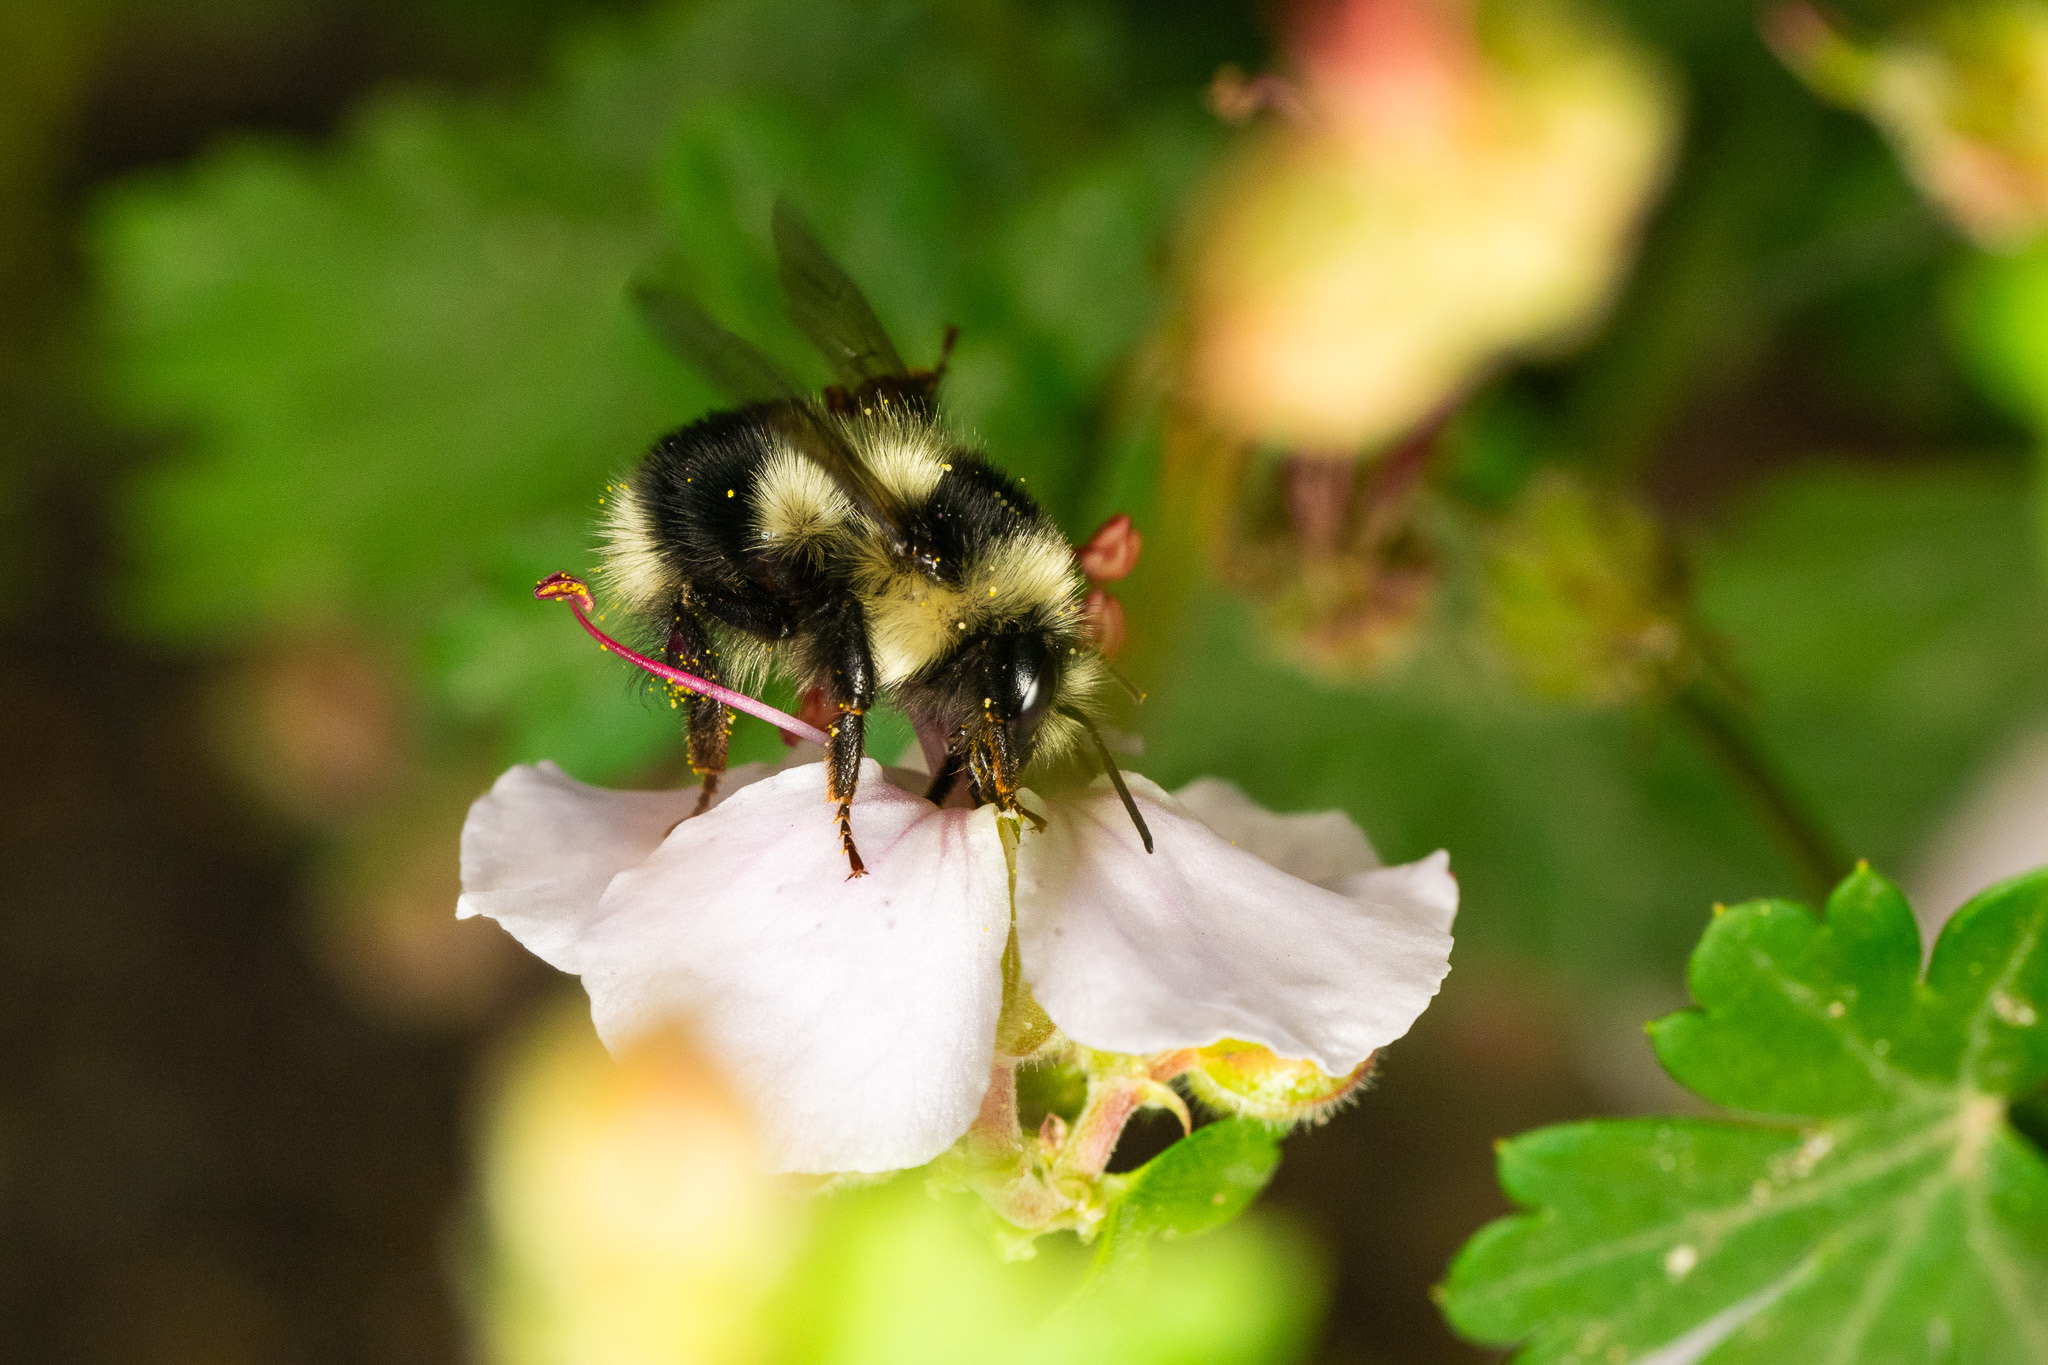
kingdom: Animalia
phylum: Arthropoda
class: Insecta
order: Hymenoptera
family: Apidae
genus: Bombus
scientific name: Bombus melanopygus
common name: Black tail bumble bee
